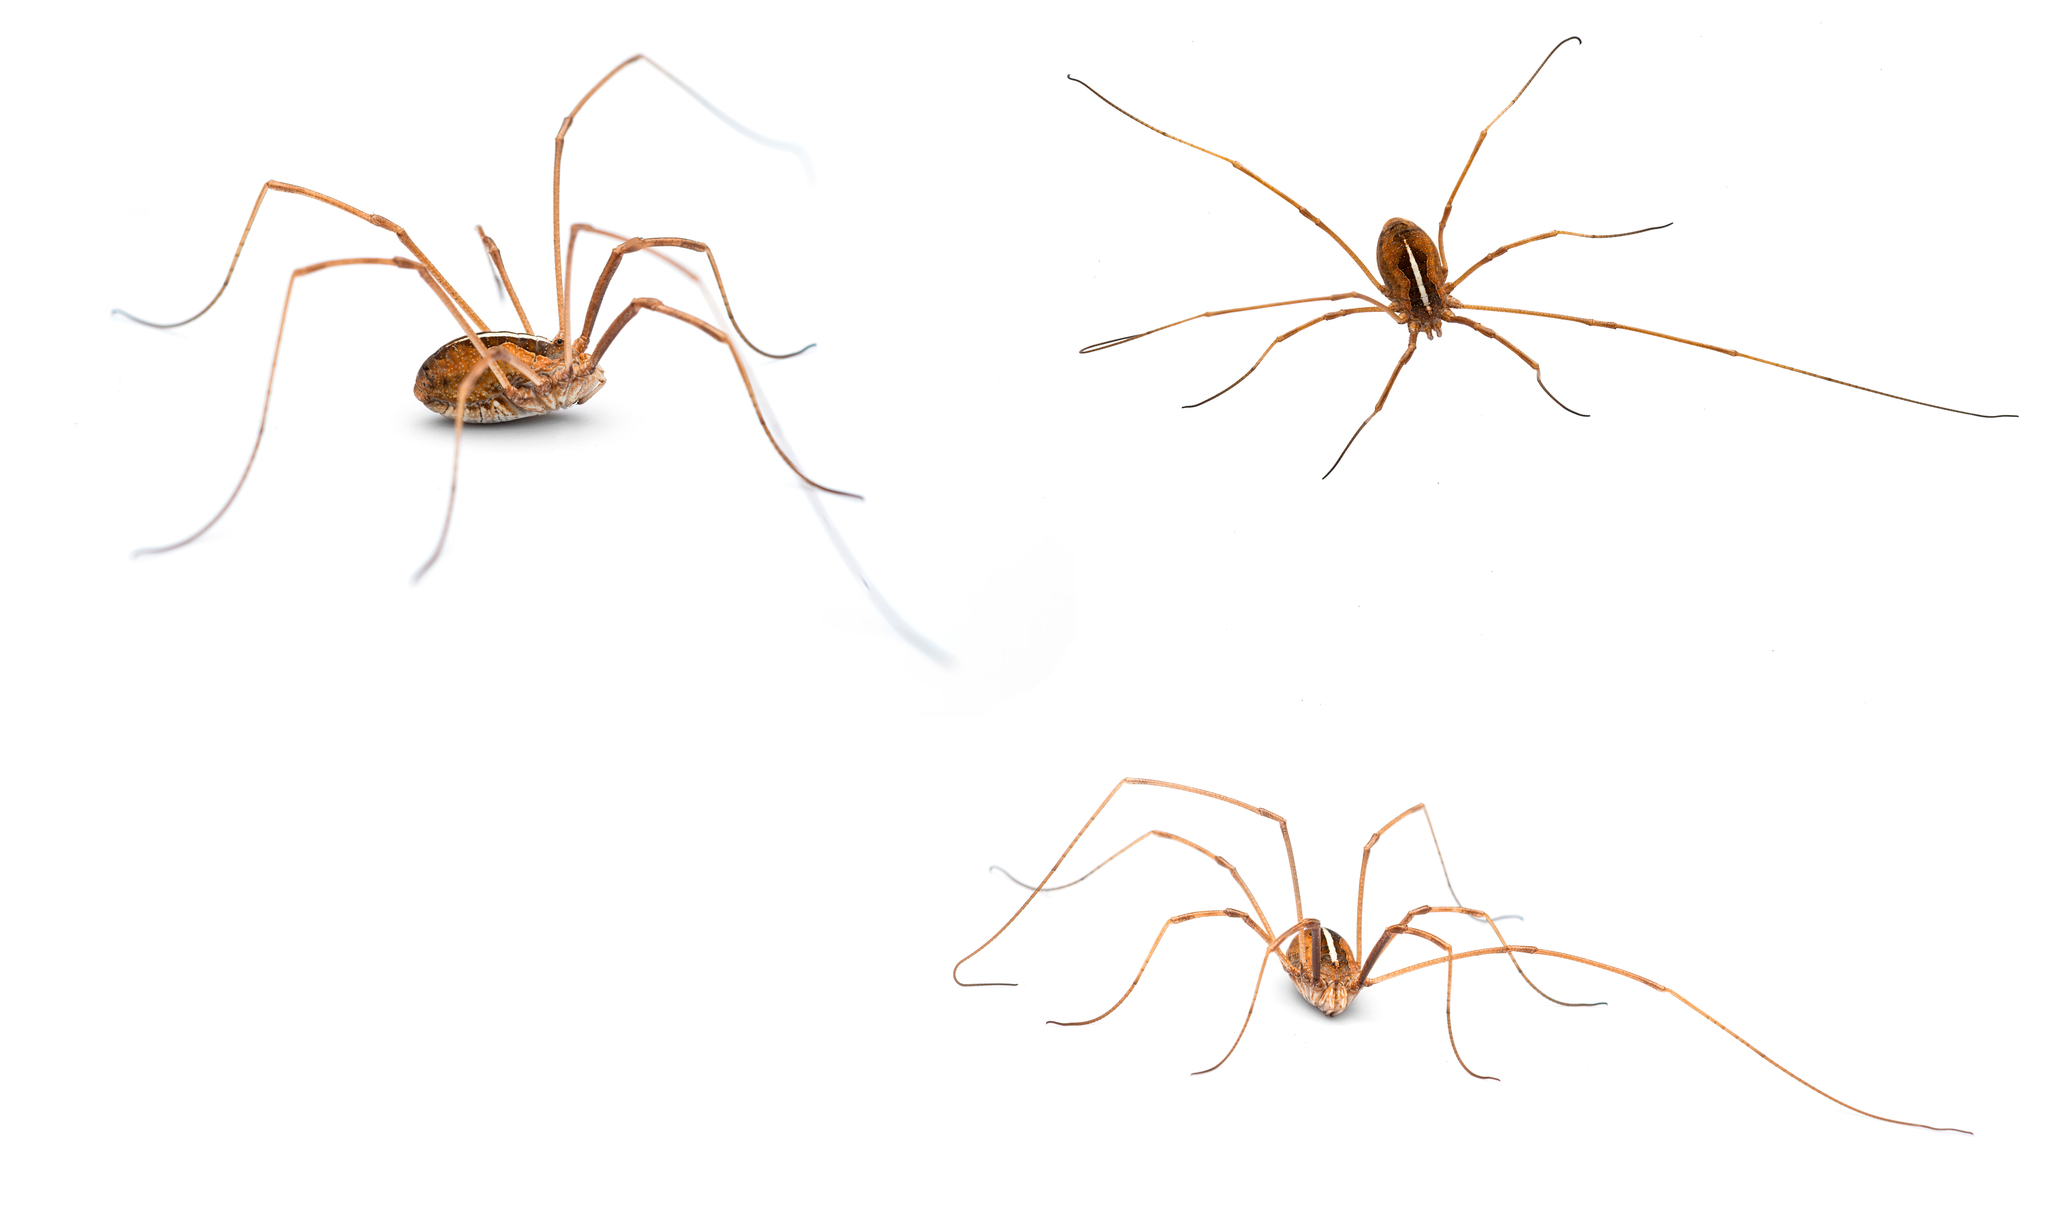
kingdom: Animalia
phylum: Arthropoda
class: Arachnida
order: Opiliones
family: Phalangiidae
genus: Metaphalangium
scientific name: Metaphalangium cirtanum
